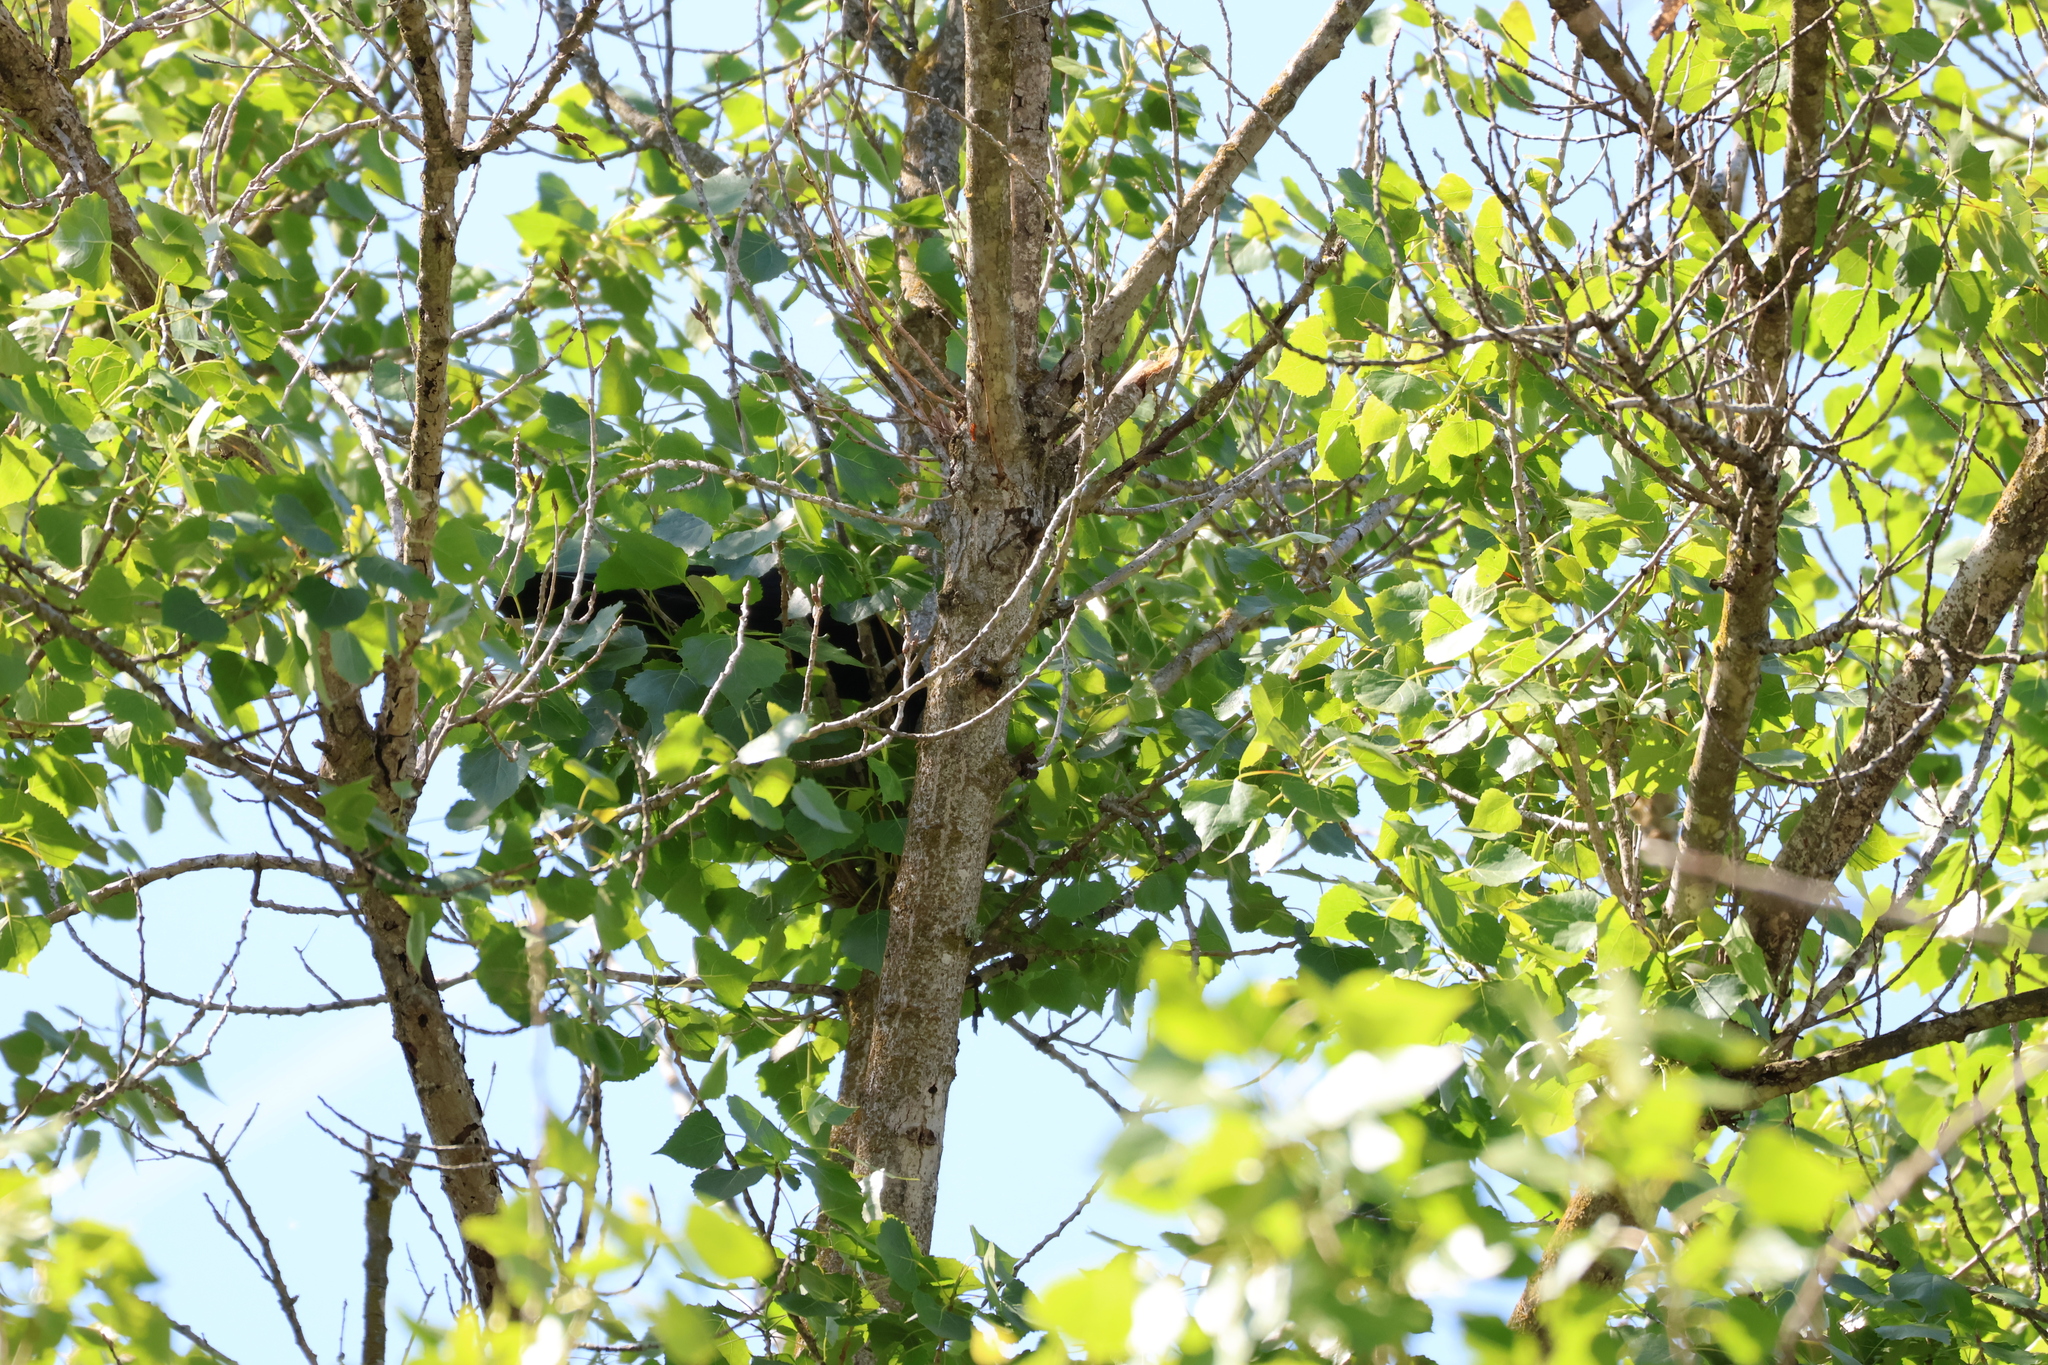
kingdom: Animalia
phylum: Chordata
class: Aves
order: Passeriformes
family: Corvidae
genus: Corvus
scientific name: Corvus brachyrhynchos
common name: American crow
